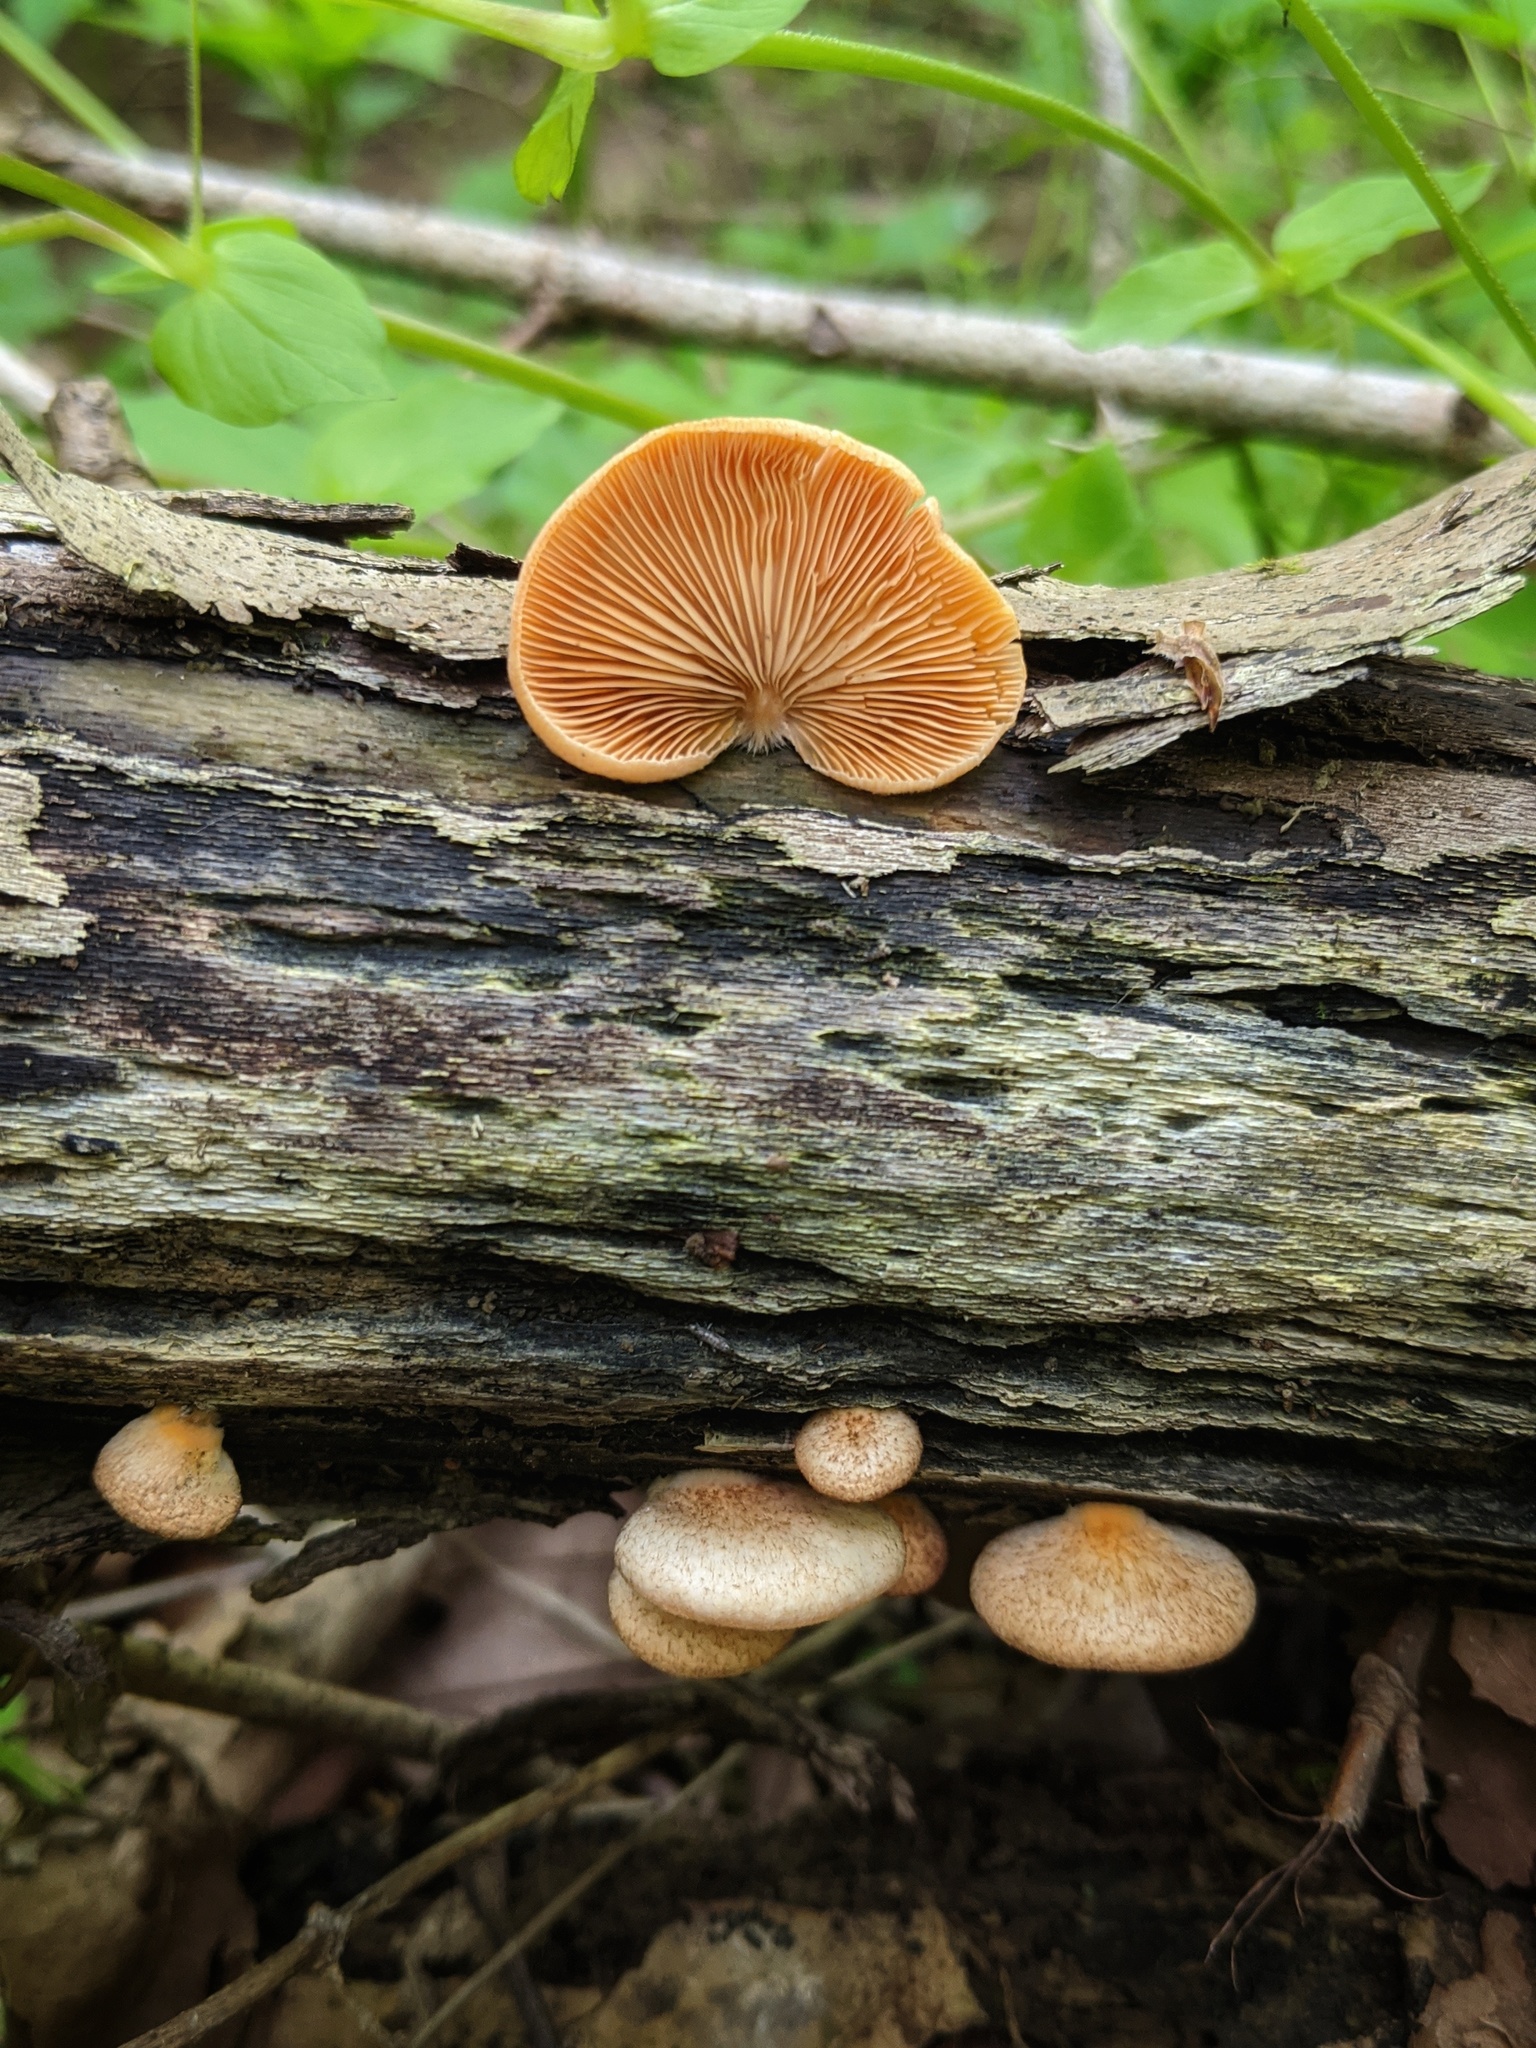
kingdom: Fungi
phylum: Basidiomycota
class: Agaricomycetes
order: Agaricales
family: Crepidotaceae
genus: Crepidotus
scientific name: Crepidotus crocophyllus
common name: Saffron oysterling
